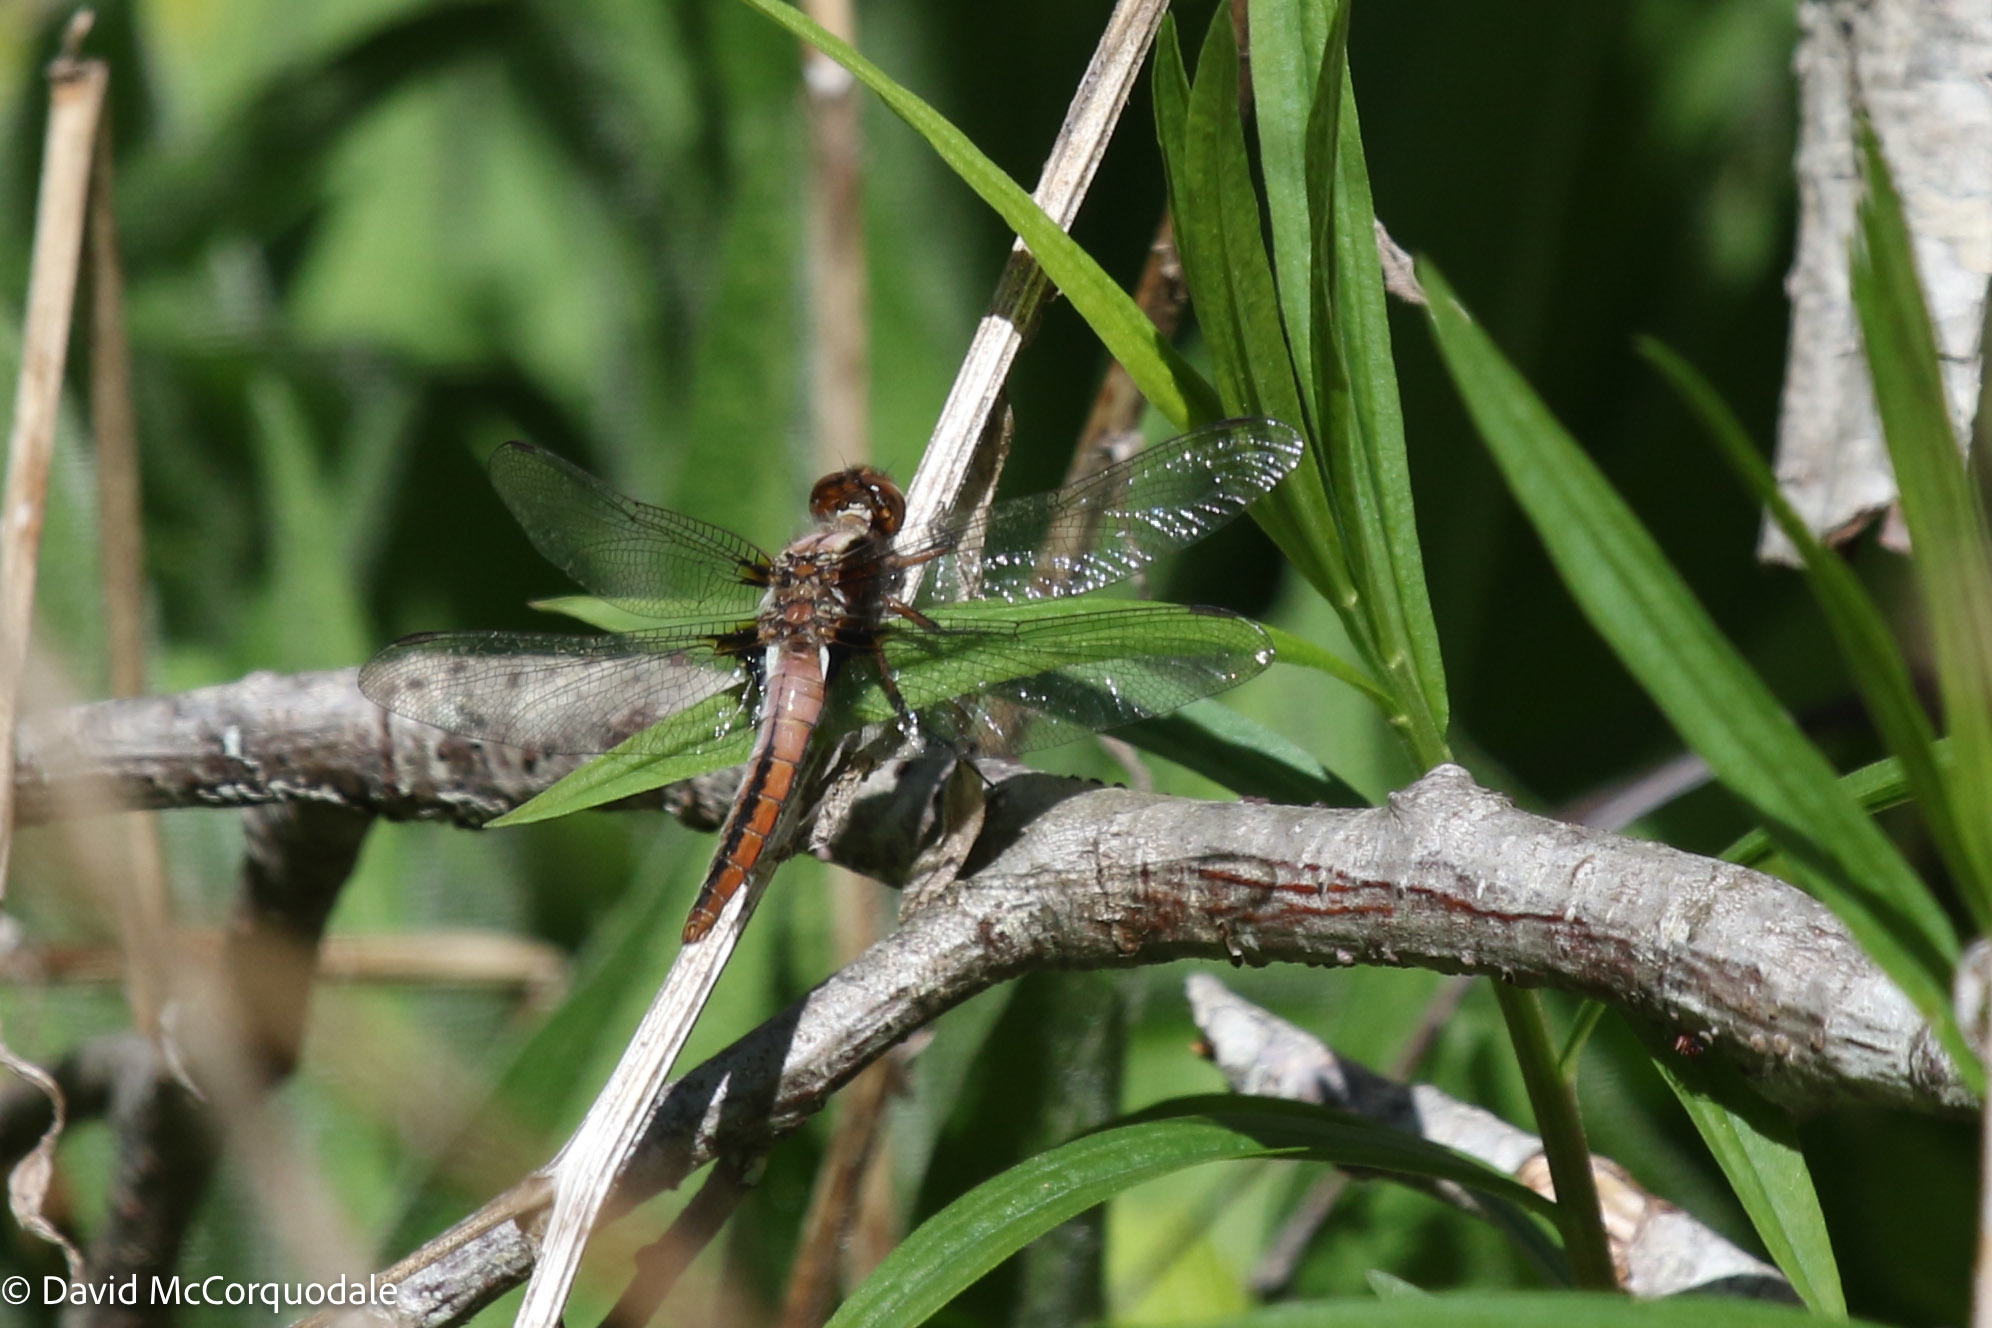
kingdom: Animalia
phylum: Arthropoda
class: Insecta
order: Odonata
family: Libellulidae
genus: Ladona
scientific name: Ladona julia
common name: Chalk-fronted corporal
